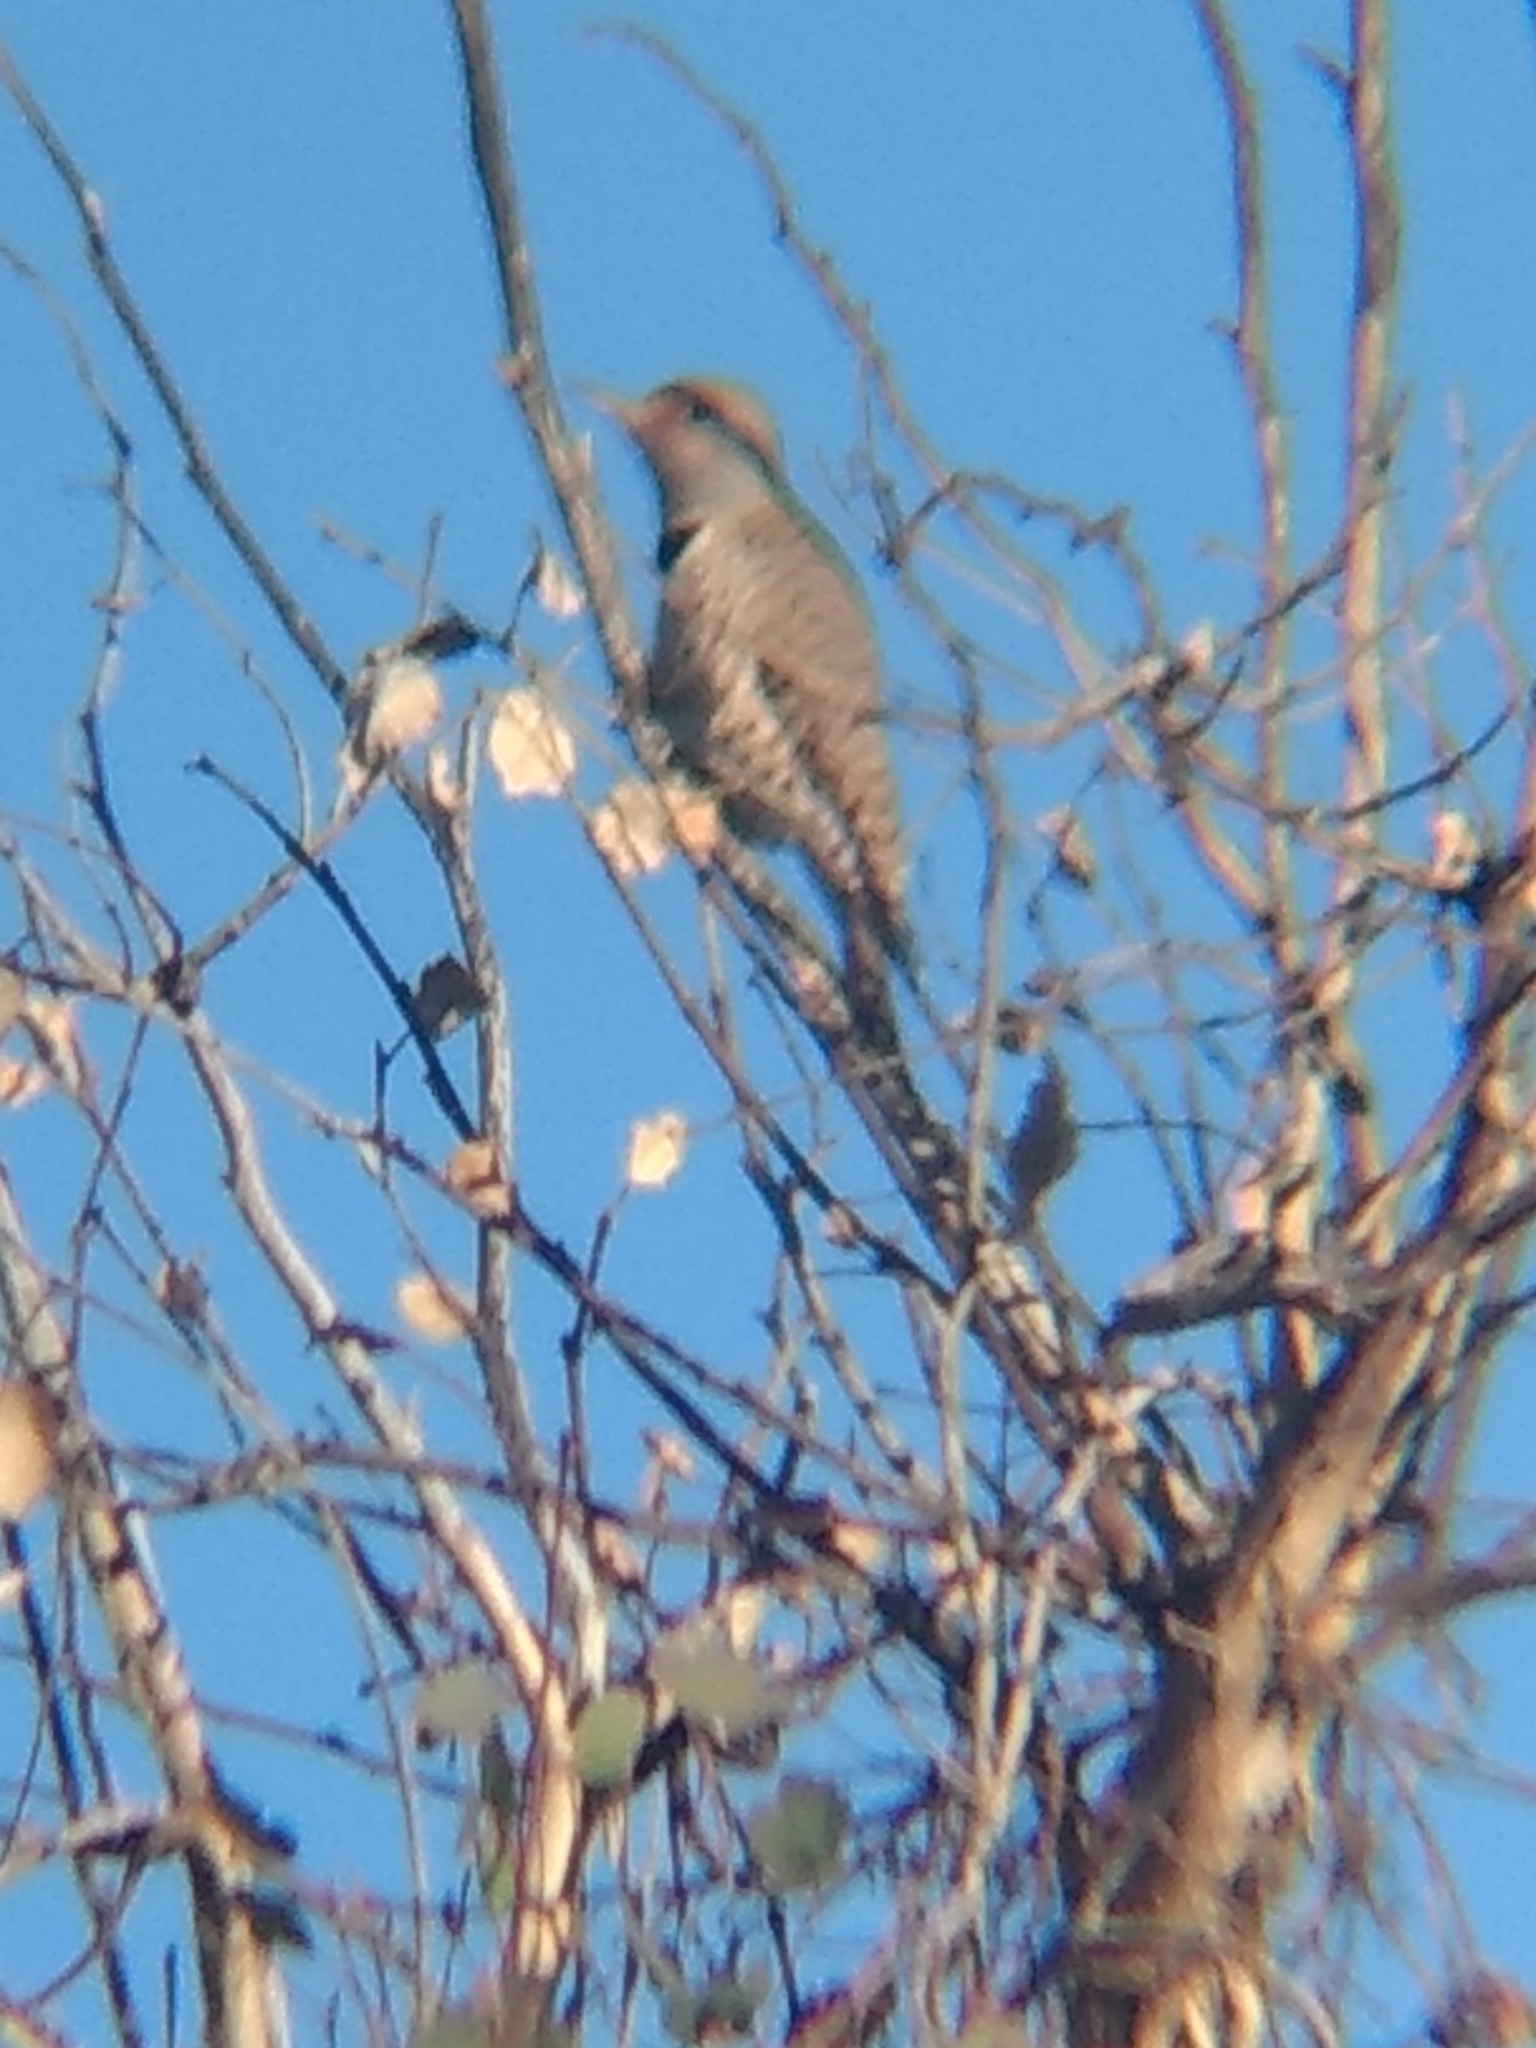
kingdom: Animalia
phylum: Chordata
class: Aves
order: Piciformes
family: Picidae
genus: Colaptes
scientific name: Colaptes auratus
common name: Northern flicker
